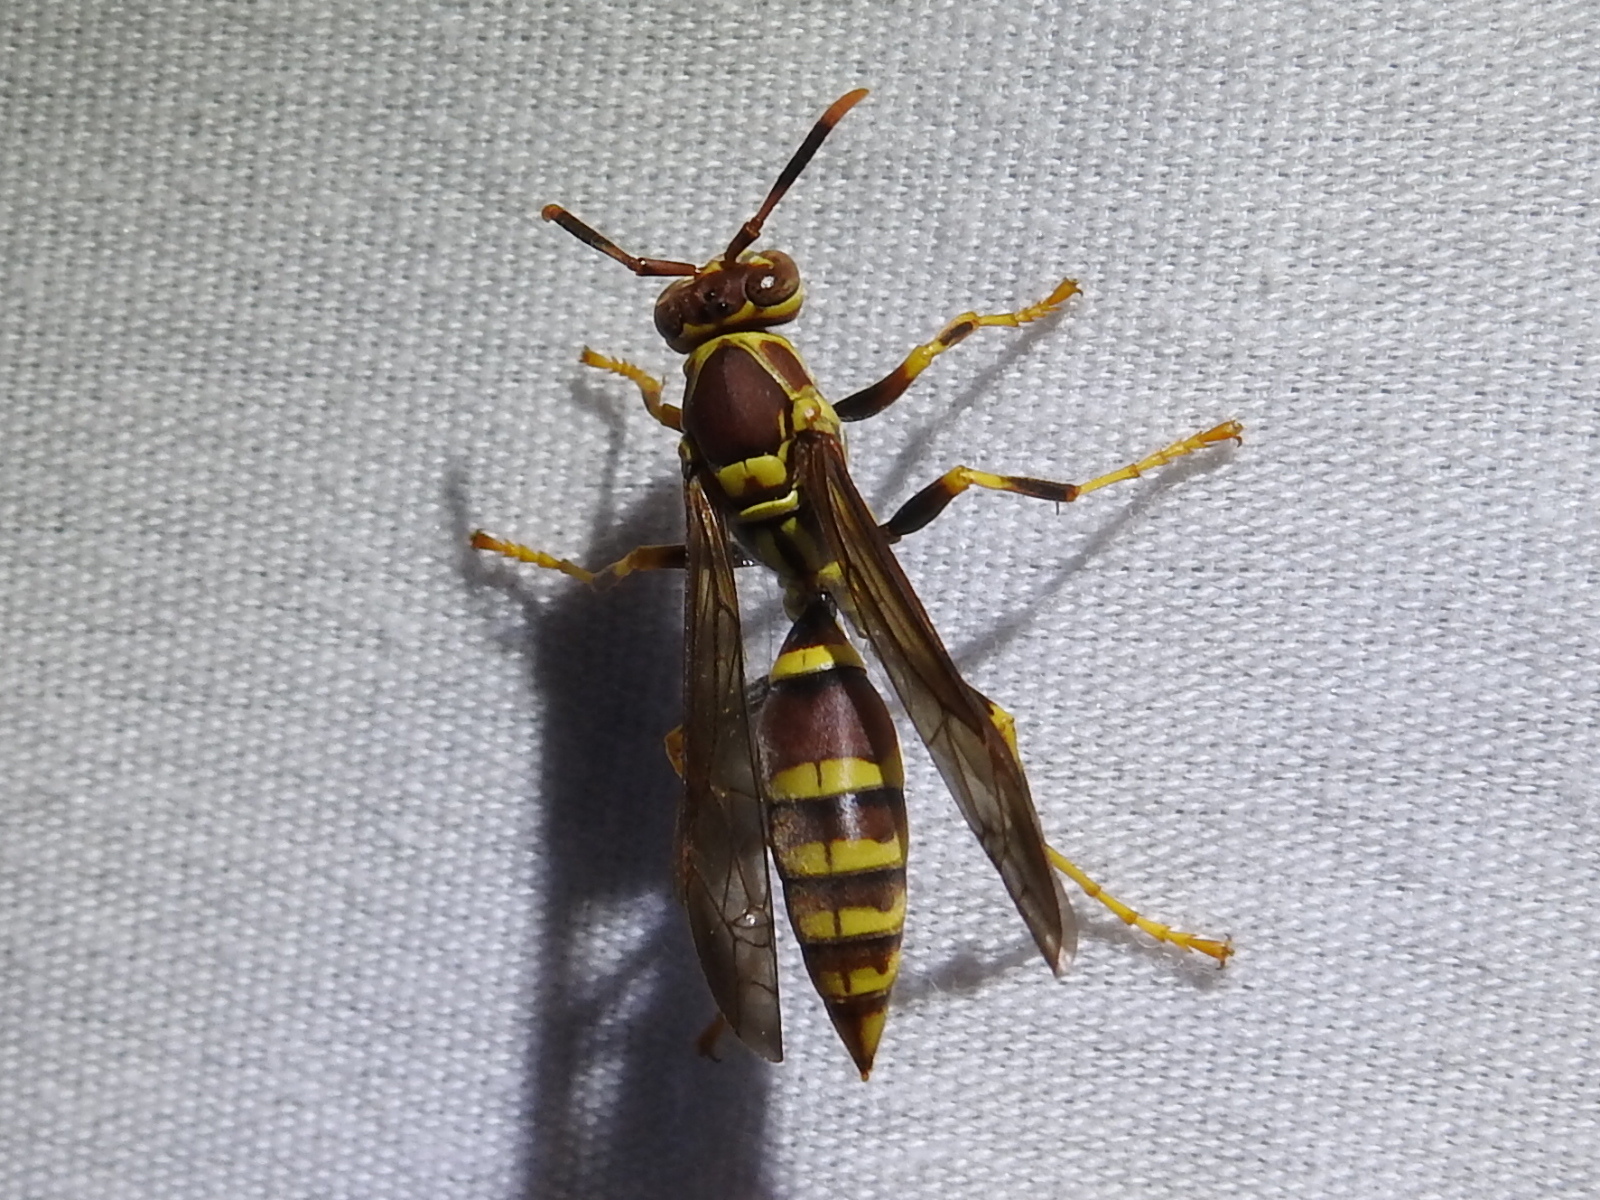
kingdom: Animalia
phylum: Arthropoda
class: Insecta
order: Hymenoptera
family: Eumenidae
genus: Polistes
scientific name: Polistes exclamans
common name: Paper wasp
